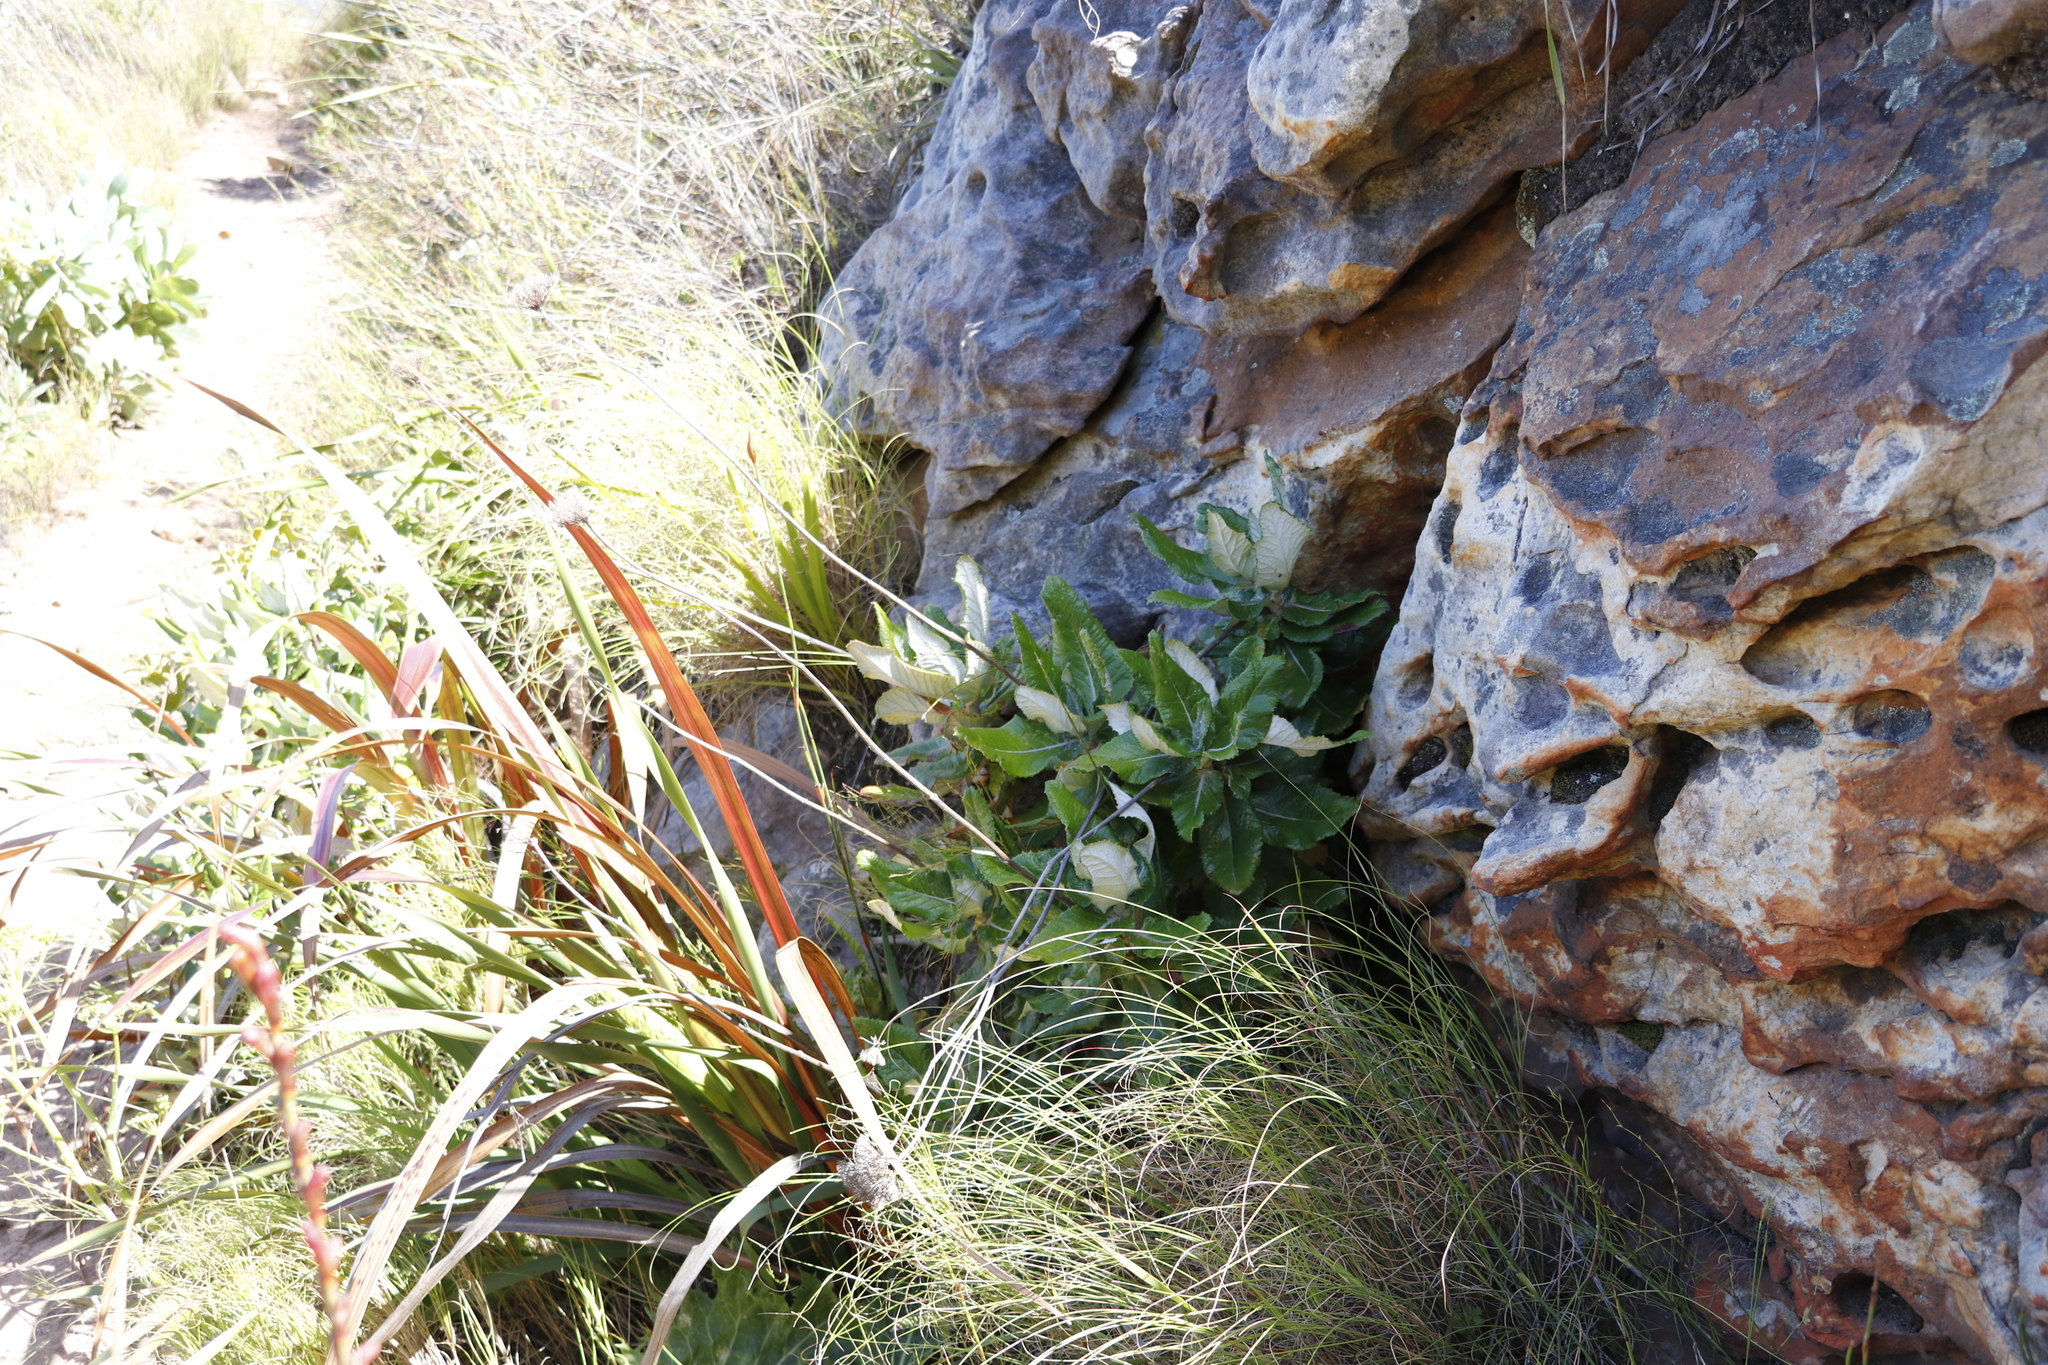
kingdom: Plantae
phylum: Tracheophyta
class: Magnoliopsida
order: Apiales
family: Apiaceae
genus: Hermas
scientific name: Hermas villosa
